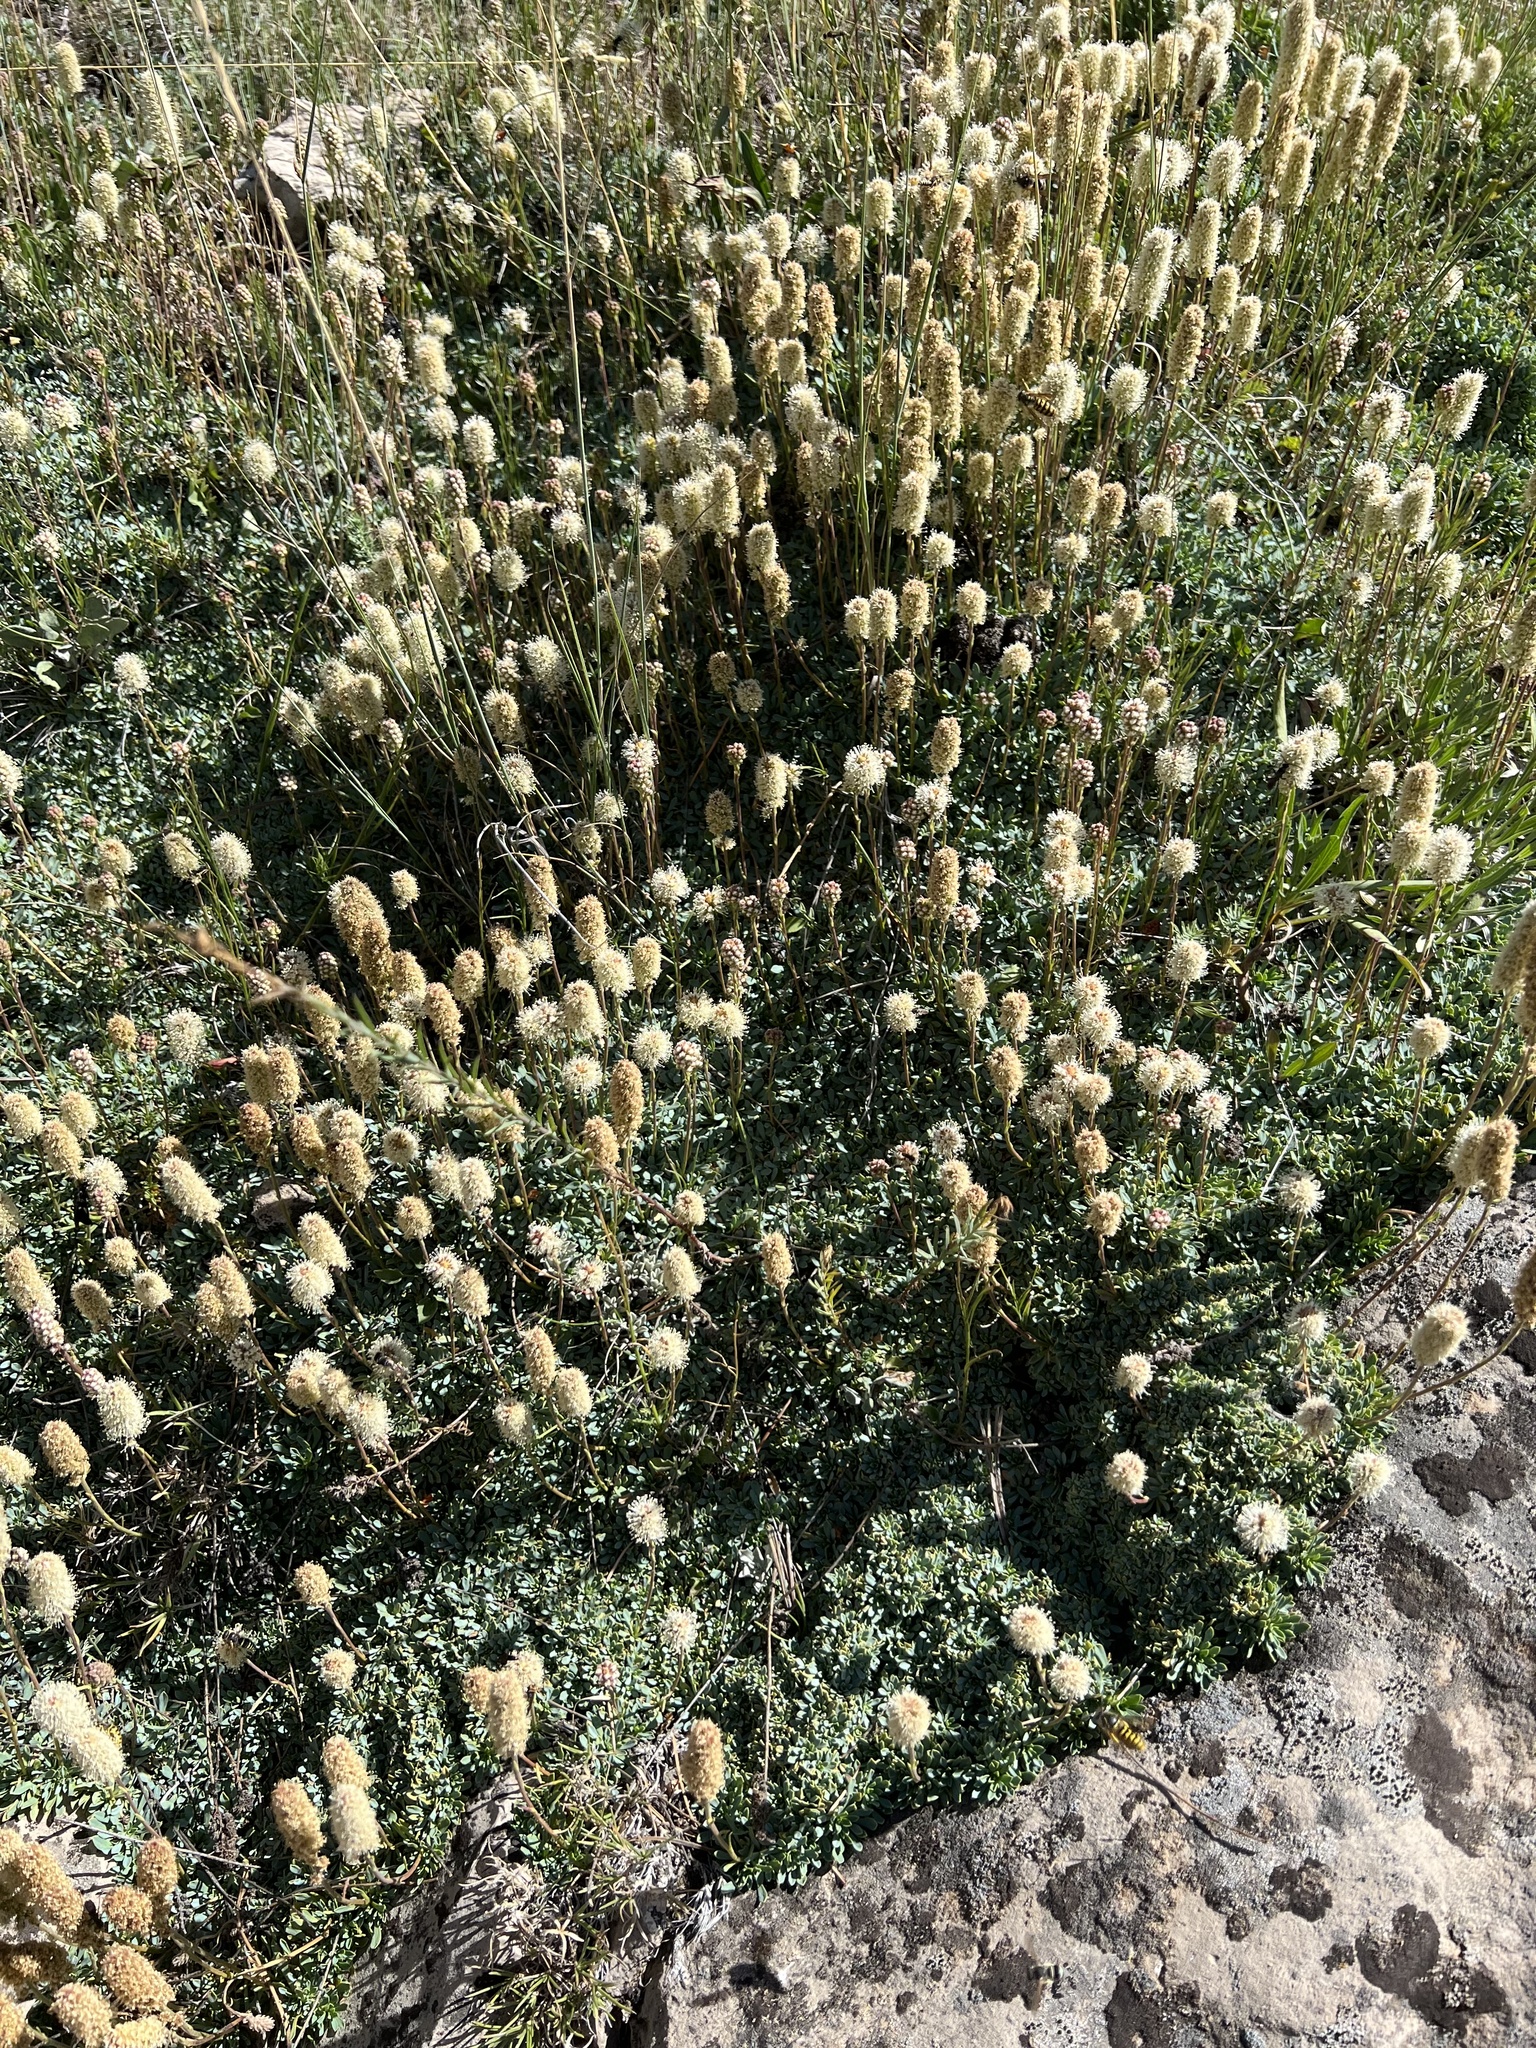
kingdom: Plantae
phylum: Tracheophyta
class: Magnoliopsida
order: Rosales
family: Rosaceae
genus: Petrophytum
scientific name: Petrophytum caespitosum
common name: Mat rockspirea
